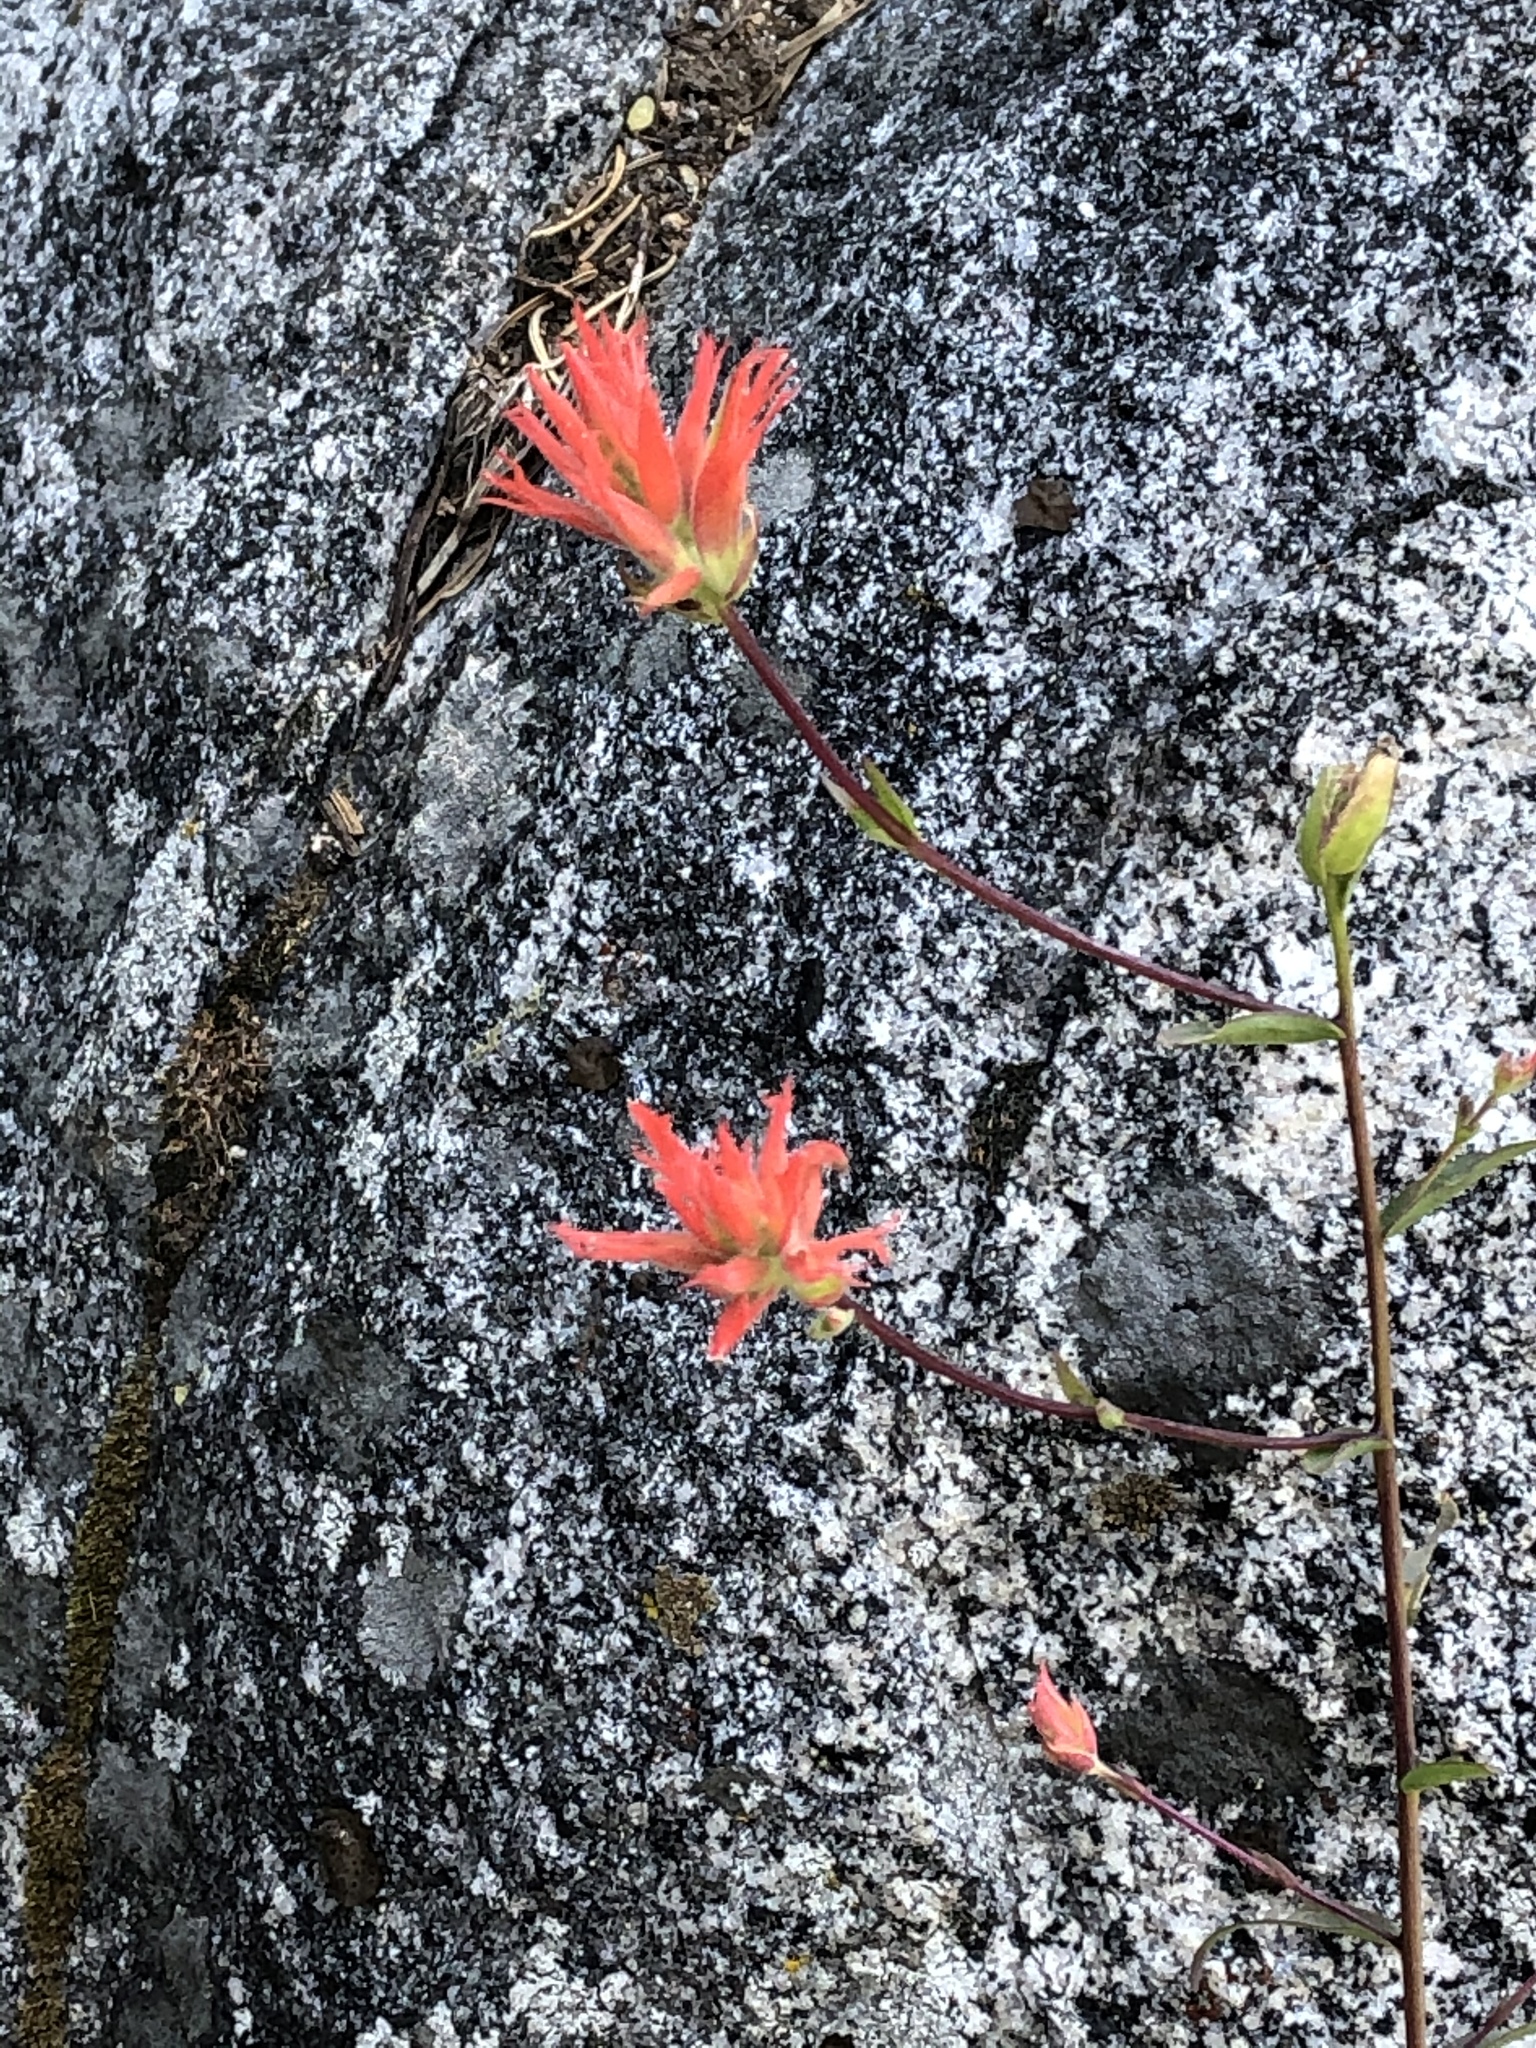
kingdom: Plantae
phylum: Tracheophyta
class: Magnoliopsida
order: Lamiales
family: Orobanchaceae
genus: Castilleja
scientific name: Castilleja miniata
